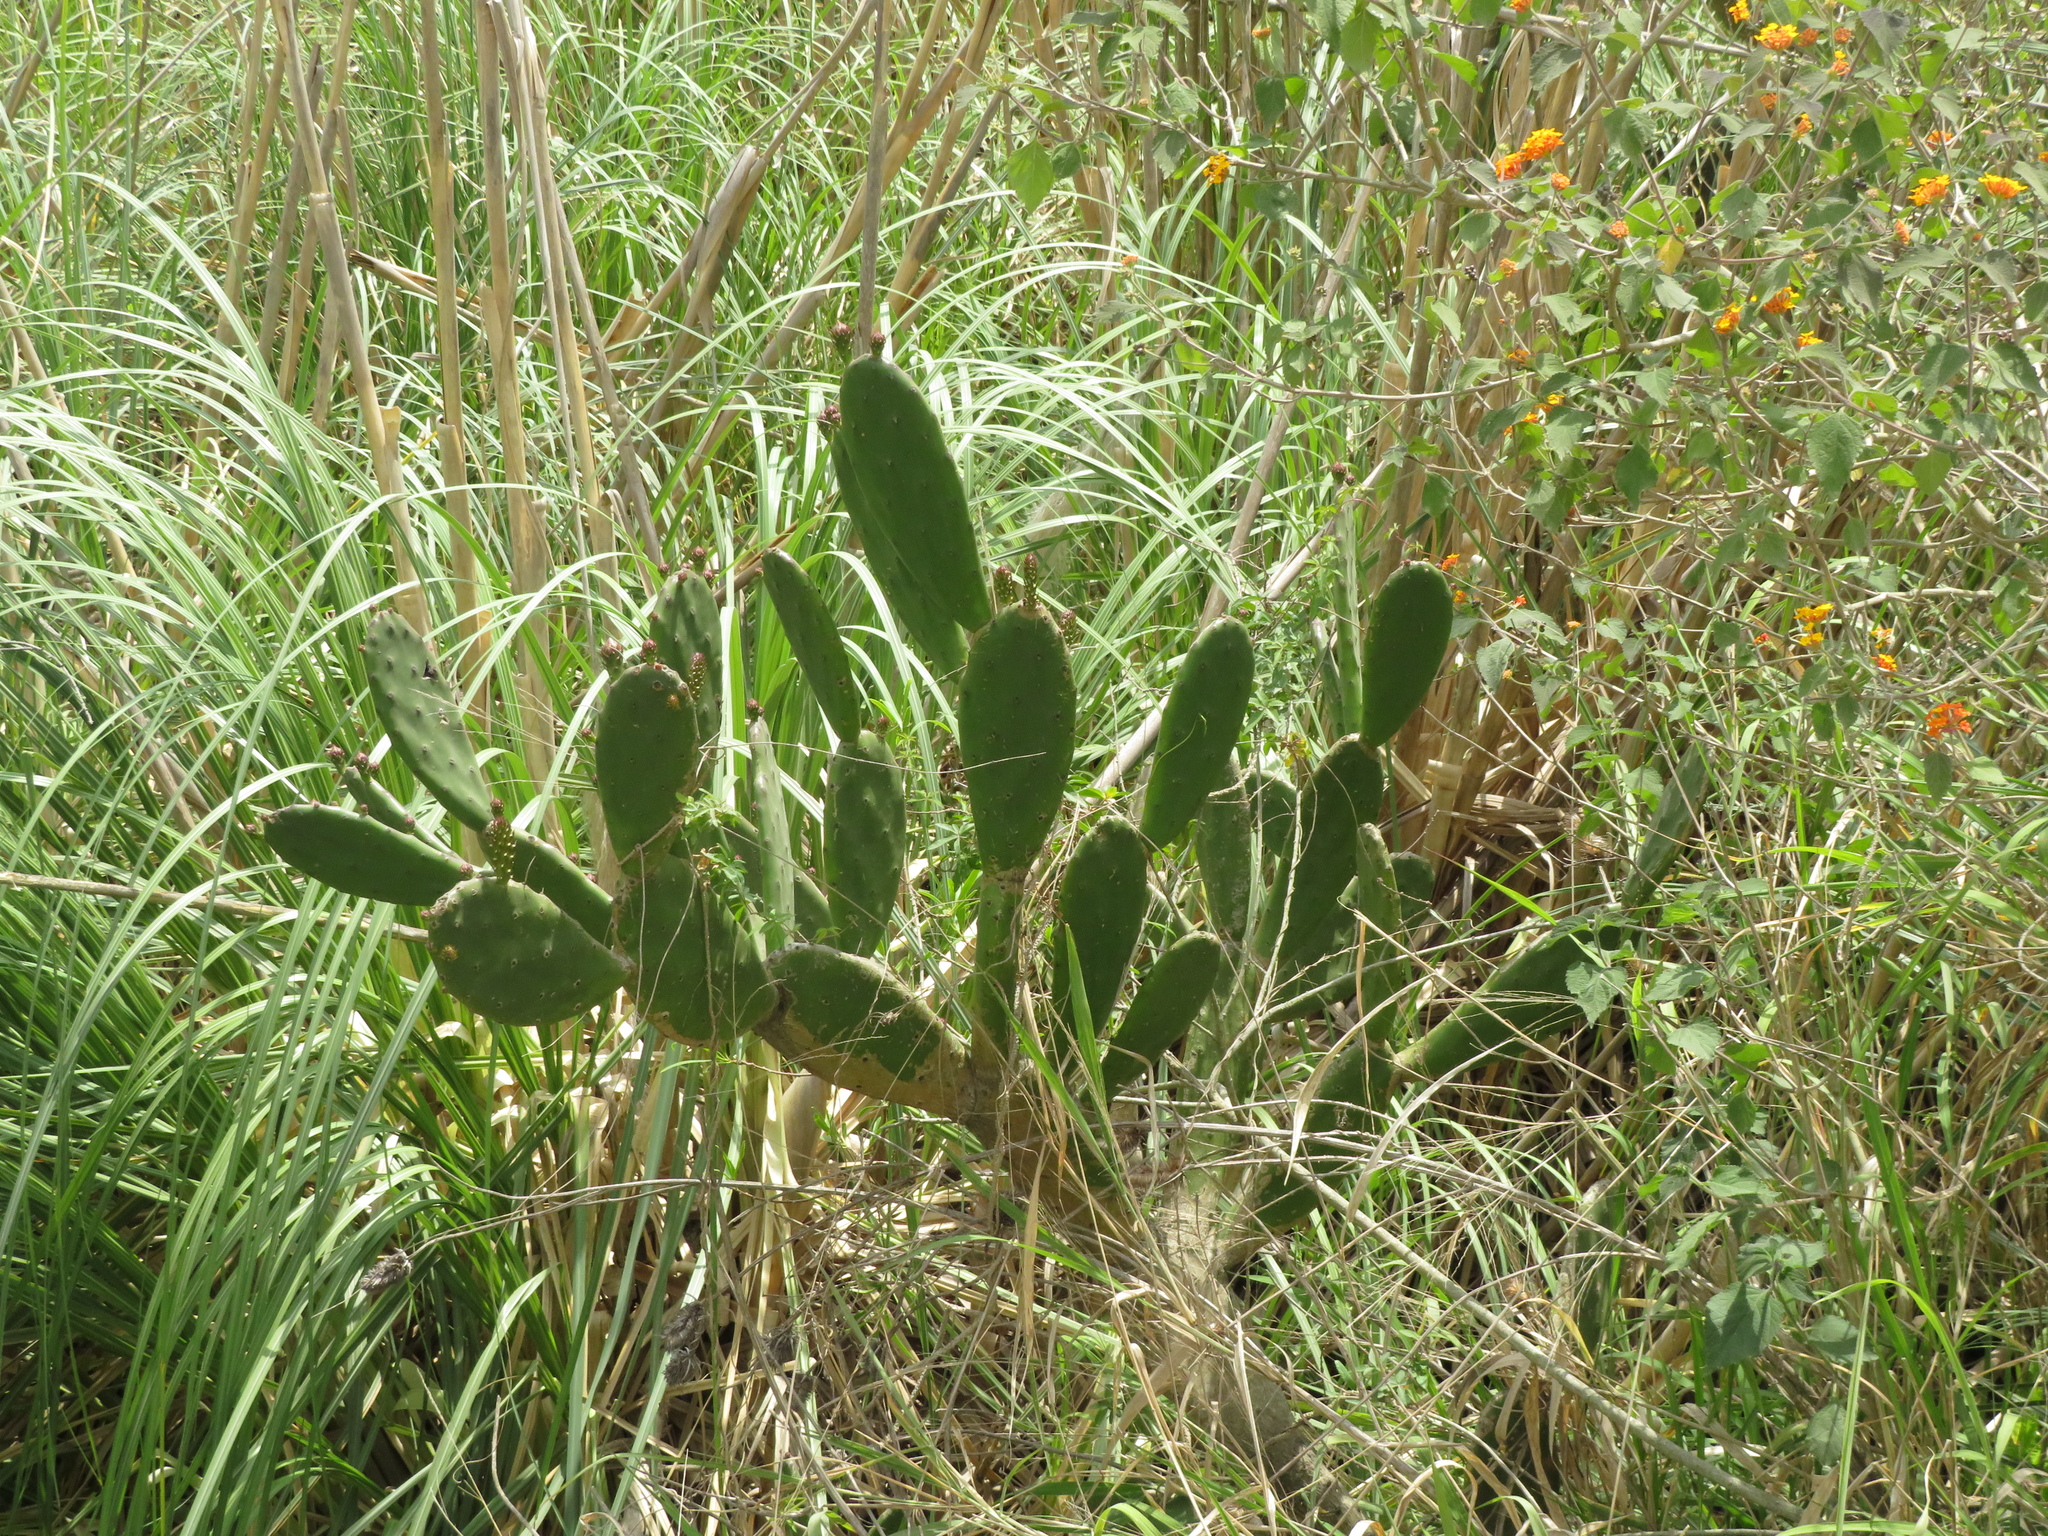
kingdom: Plantae
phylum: Tracheophyta
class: Magnoliopsida
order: Caryophyllales
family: Cactaceae
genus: Opuntia
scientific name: Opuntia elata
